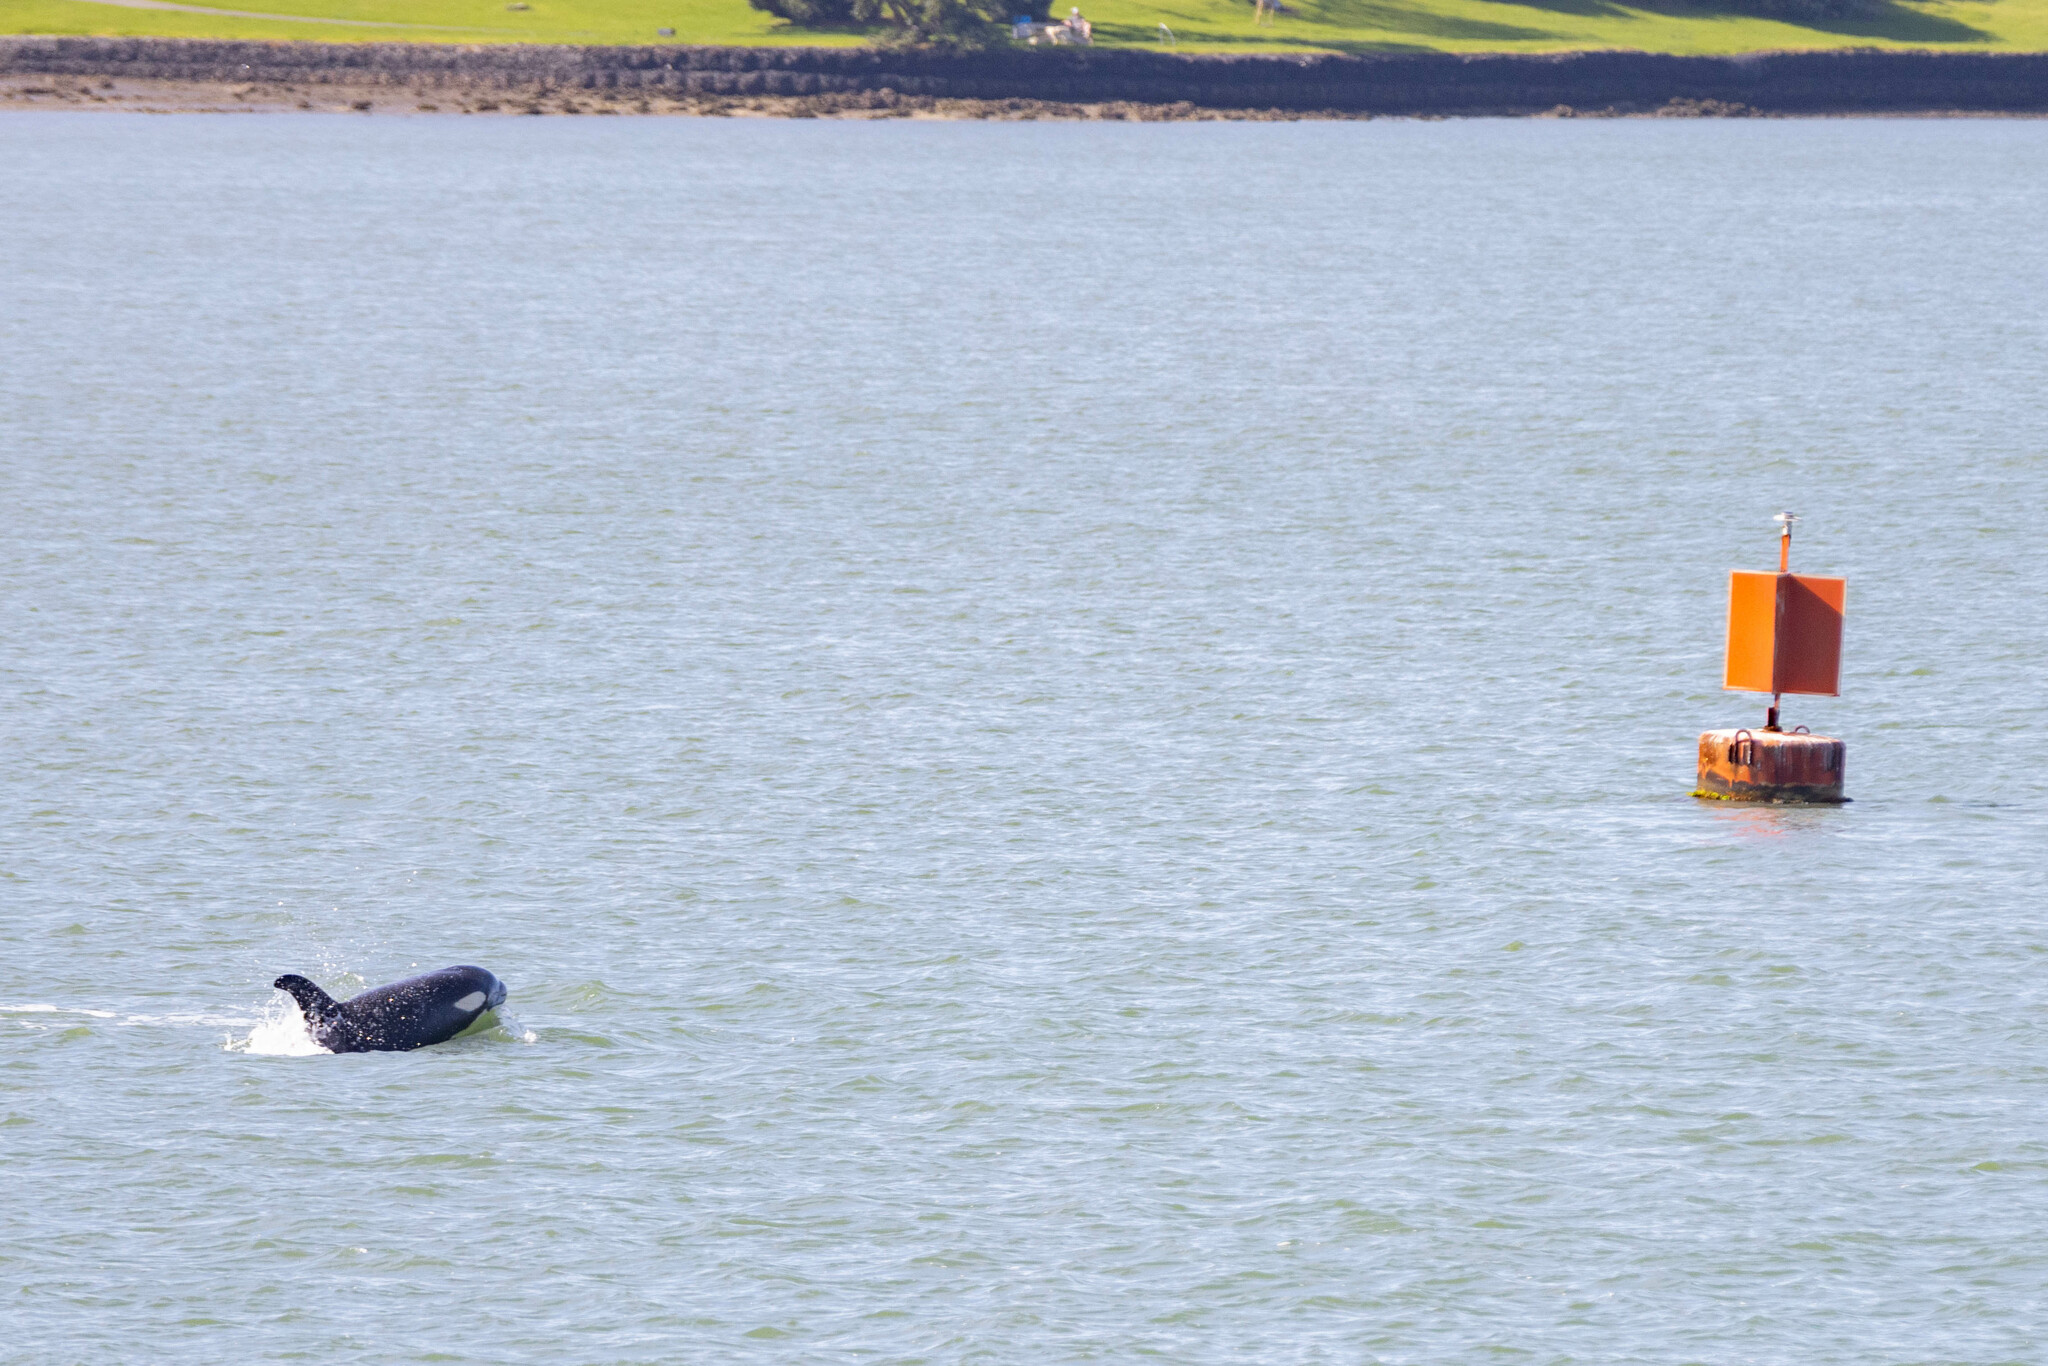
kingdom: Animalia
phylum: Chordata
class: Mammalia
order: Cetacea
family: Delphinidae
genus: Orcinus
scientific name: Orcinus orca
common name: Killer whale
